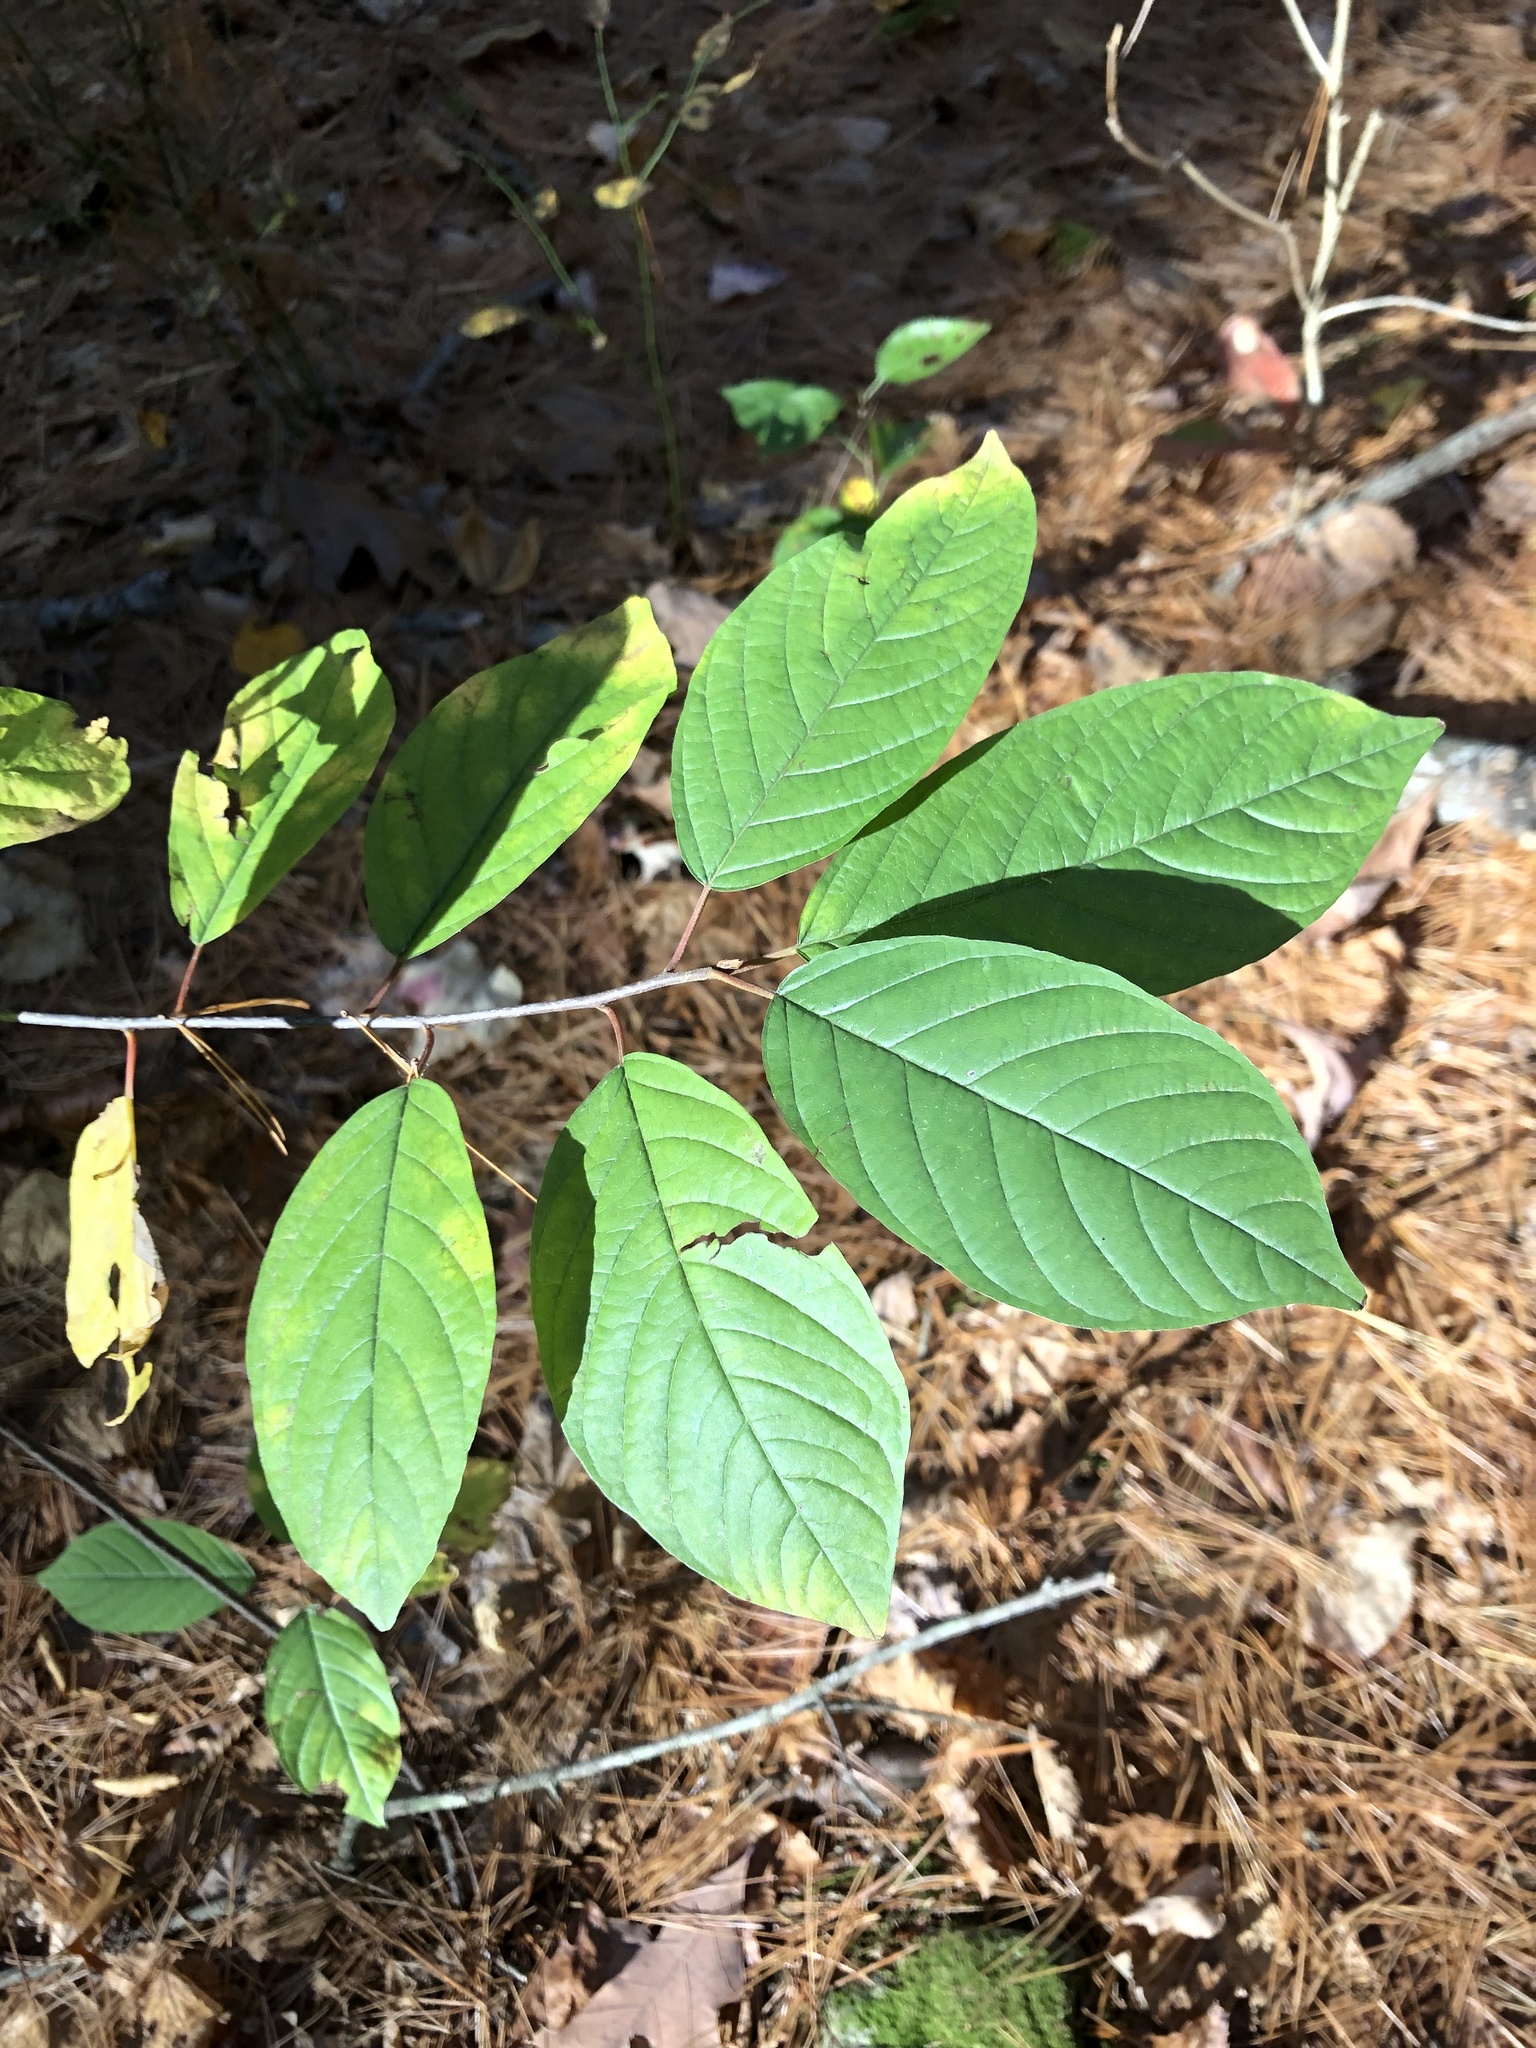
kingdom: Plantae
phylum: Tracheophyta
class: Magnoliopsida
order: Rosales
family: Rhamnaceae
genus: Frangula
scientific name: Frangula alnus
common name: Alder buckthorn
